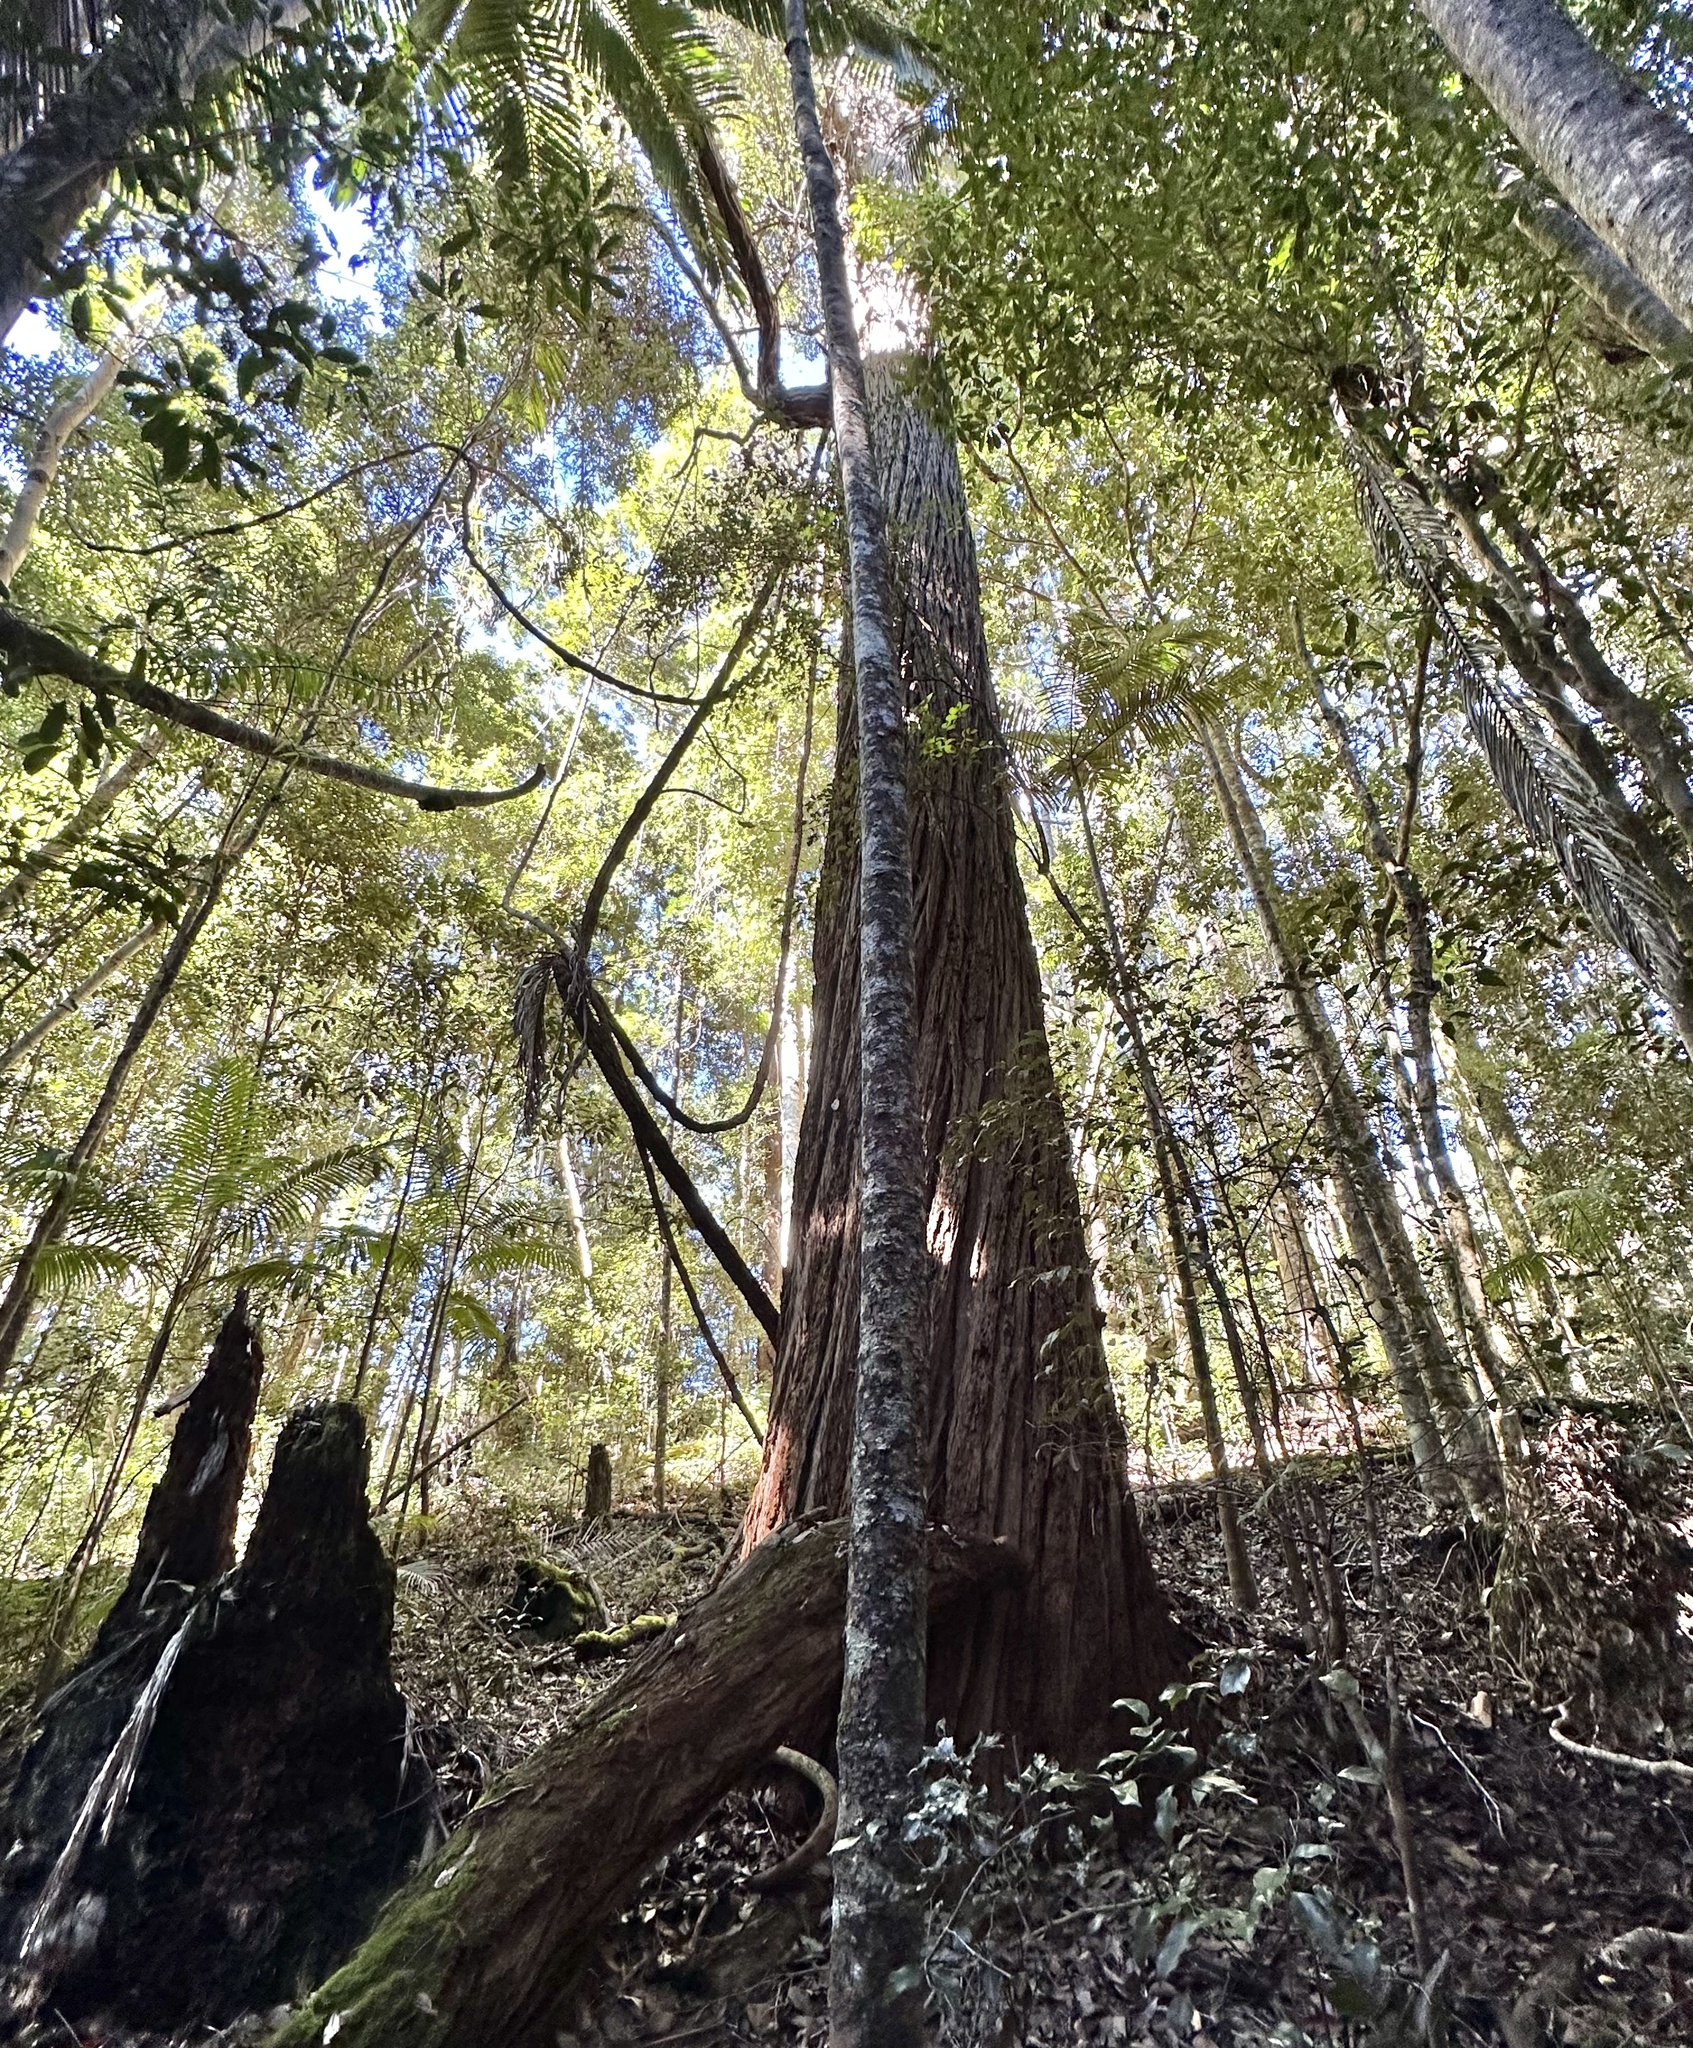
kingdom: Plantae
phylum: Tracheophyta
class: Magnoliopsida
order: Myrtales
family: Myrtaceae
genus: Syncarpia
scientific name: Syncarpia hillii
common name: Fraser island turpentine
